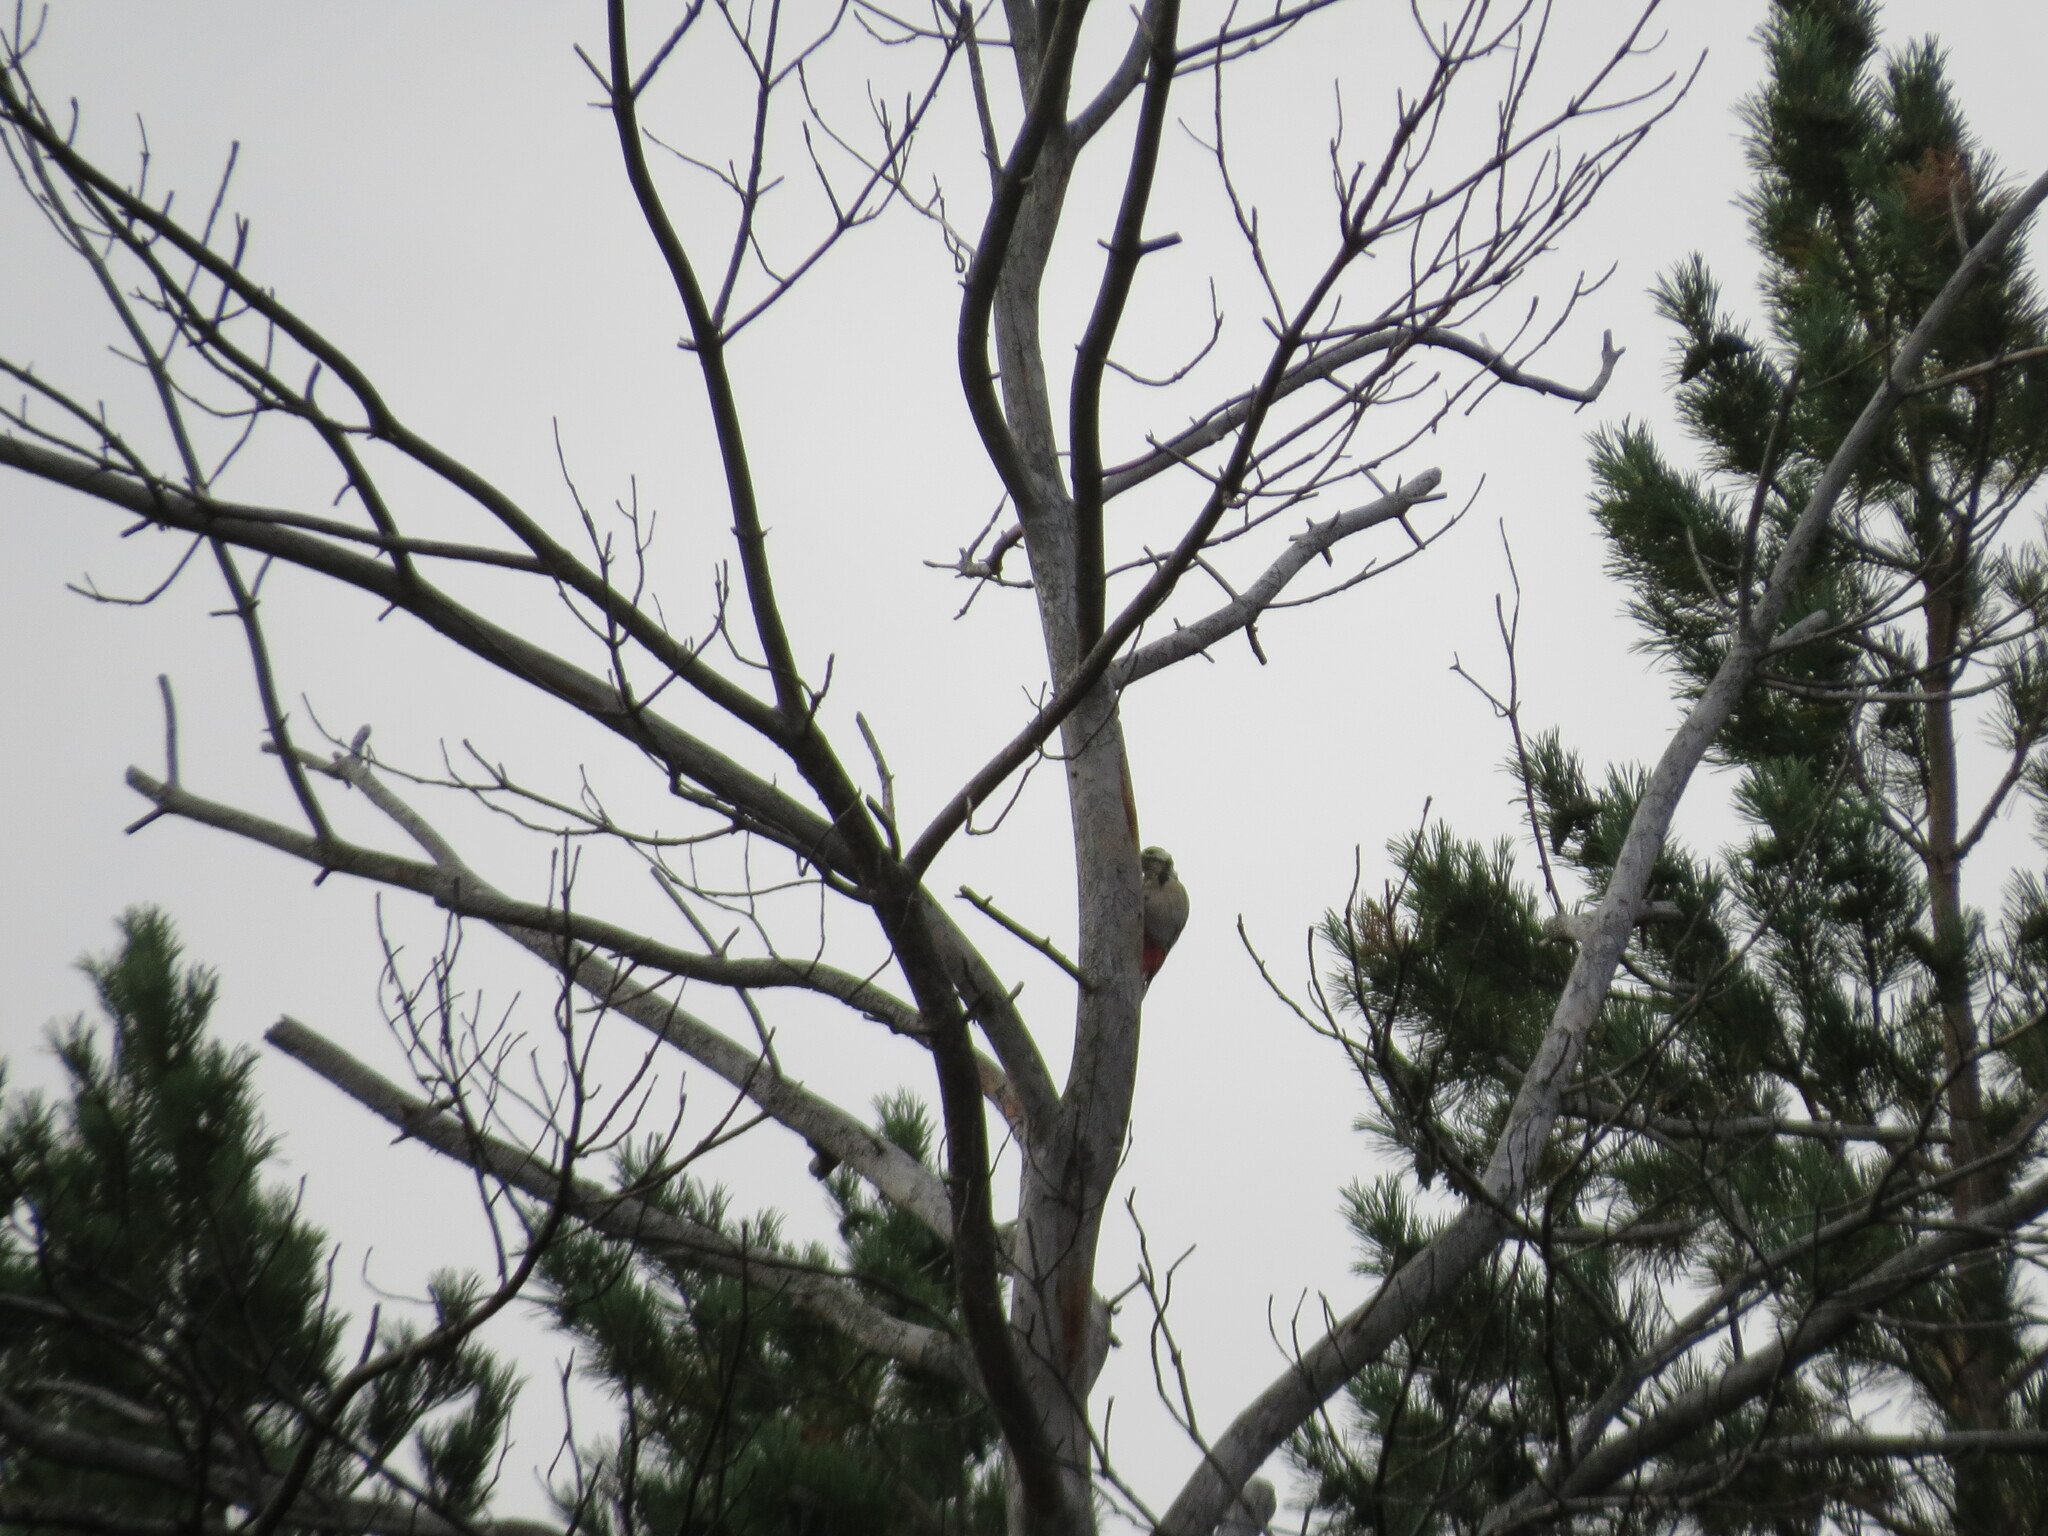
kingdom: Animalia
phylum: Chordata
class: Aves
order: Piciformes
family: Picidae
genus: Dendrocopos
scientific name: Dendrocopos major
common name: Great spotted woodpecker
